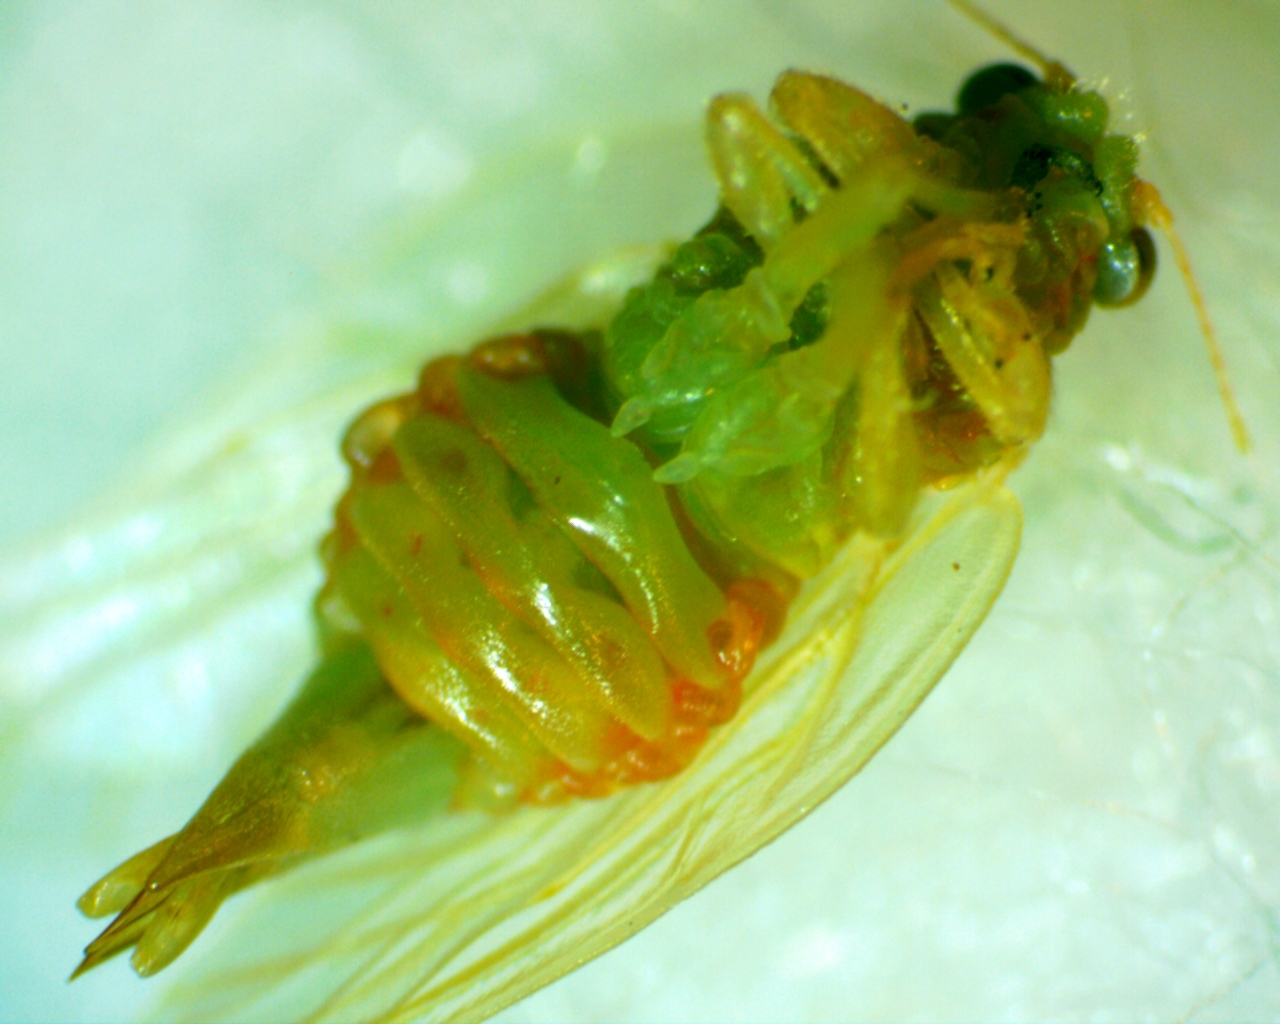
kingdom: Animalia
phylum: Arthropoda
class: Insecta
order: Hemiptera
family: Aphalaridae
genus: Pachypsylla
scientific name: Pachypsylla venusta
